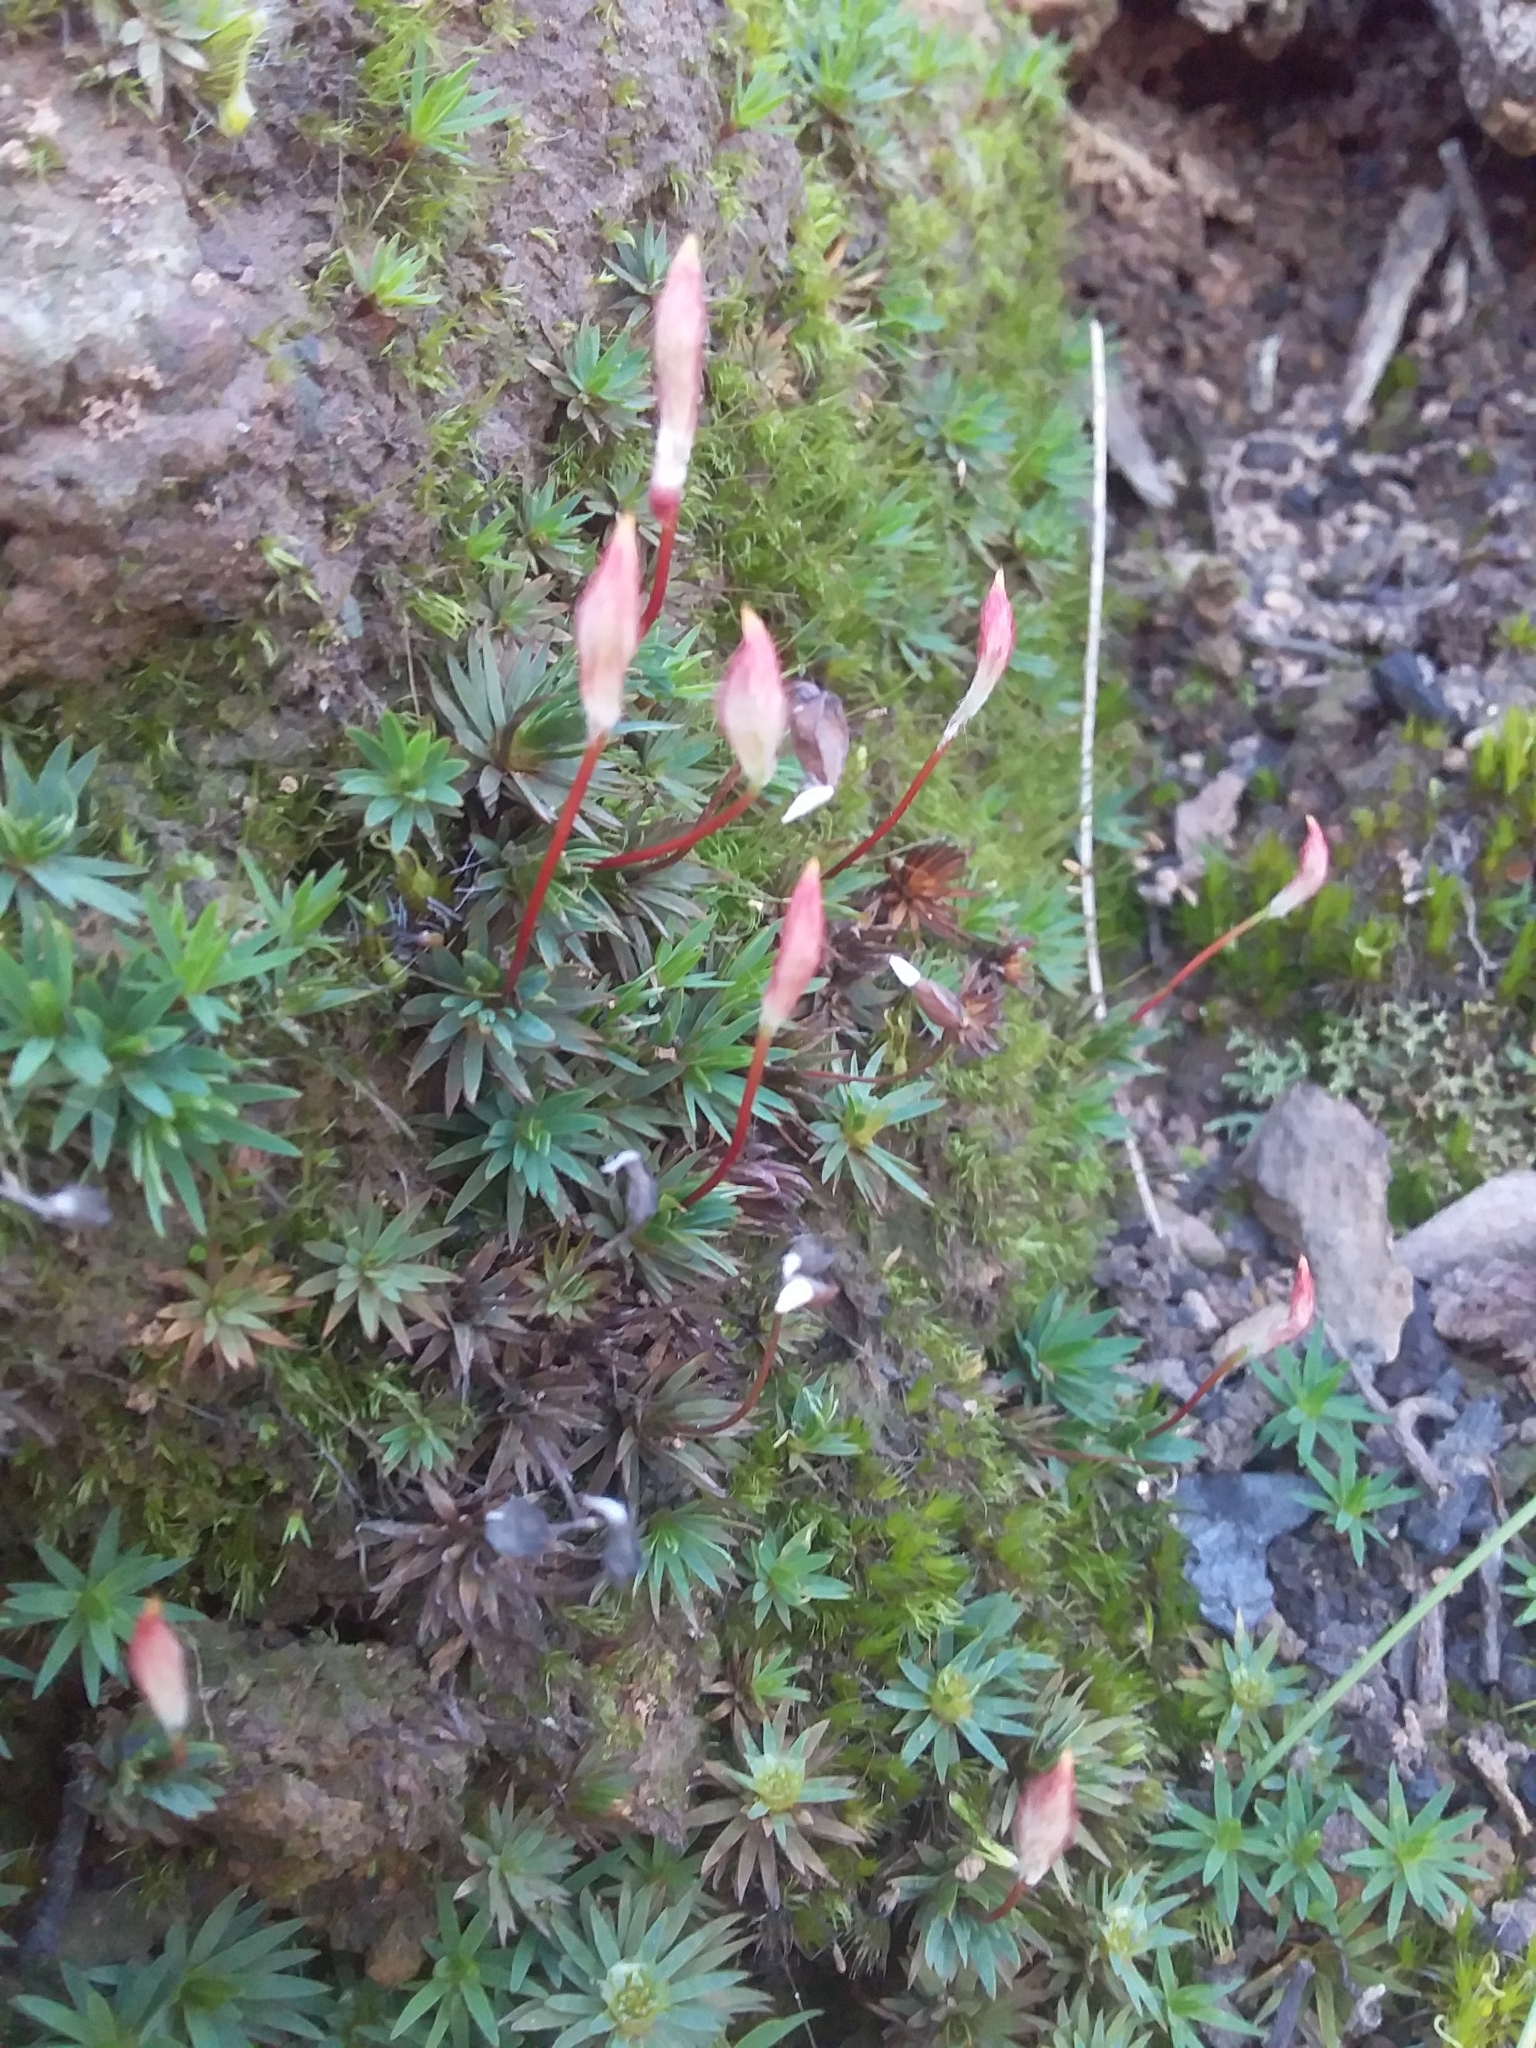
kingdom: Plantae
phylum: Bryophyta
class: Polytrichopsida
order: Polytrichales
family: Polytrichaceae
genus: Dawsonia
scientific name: Dawsonia longiseta
